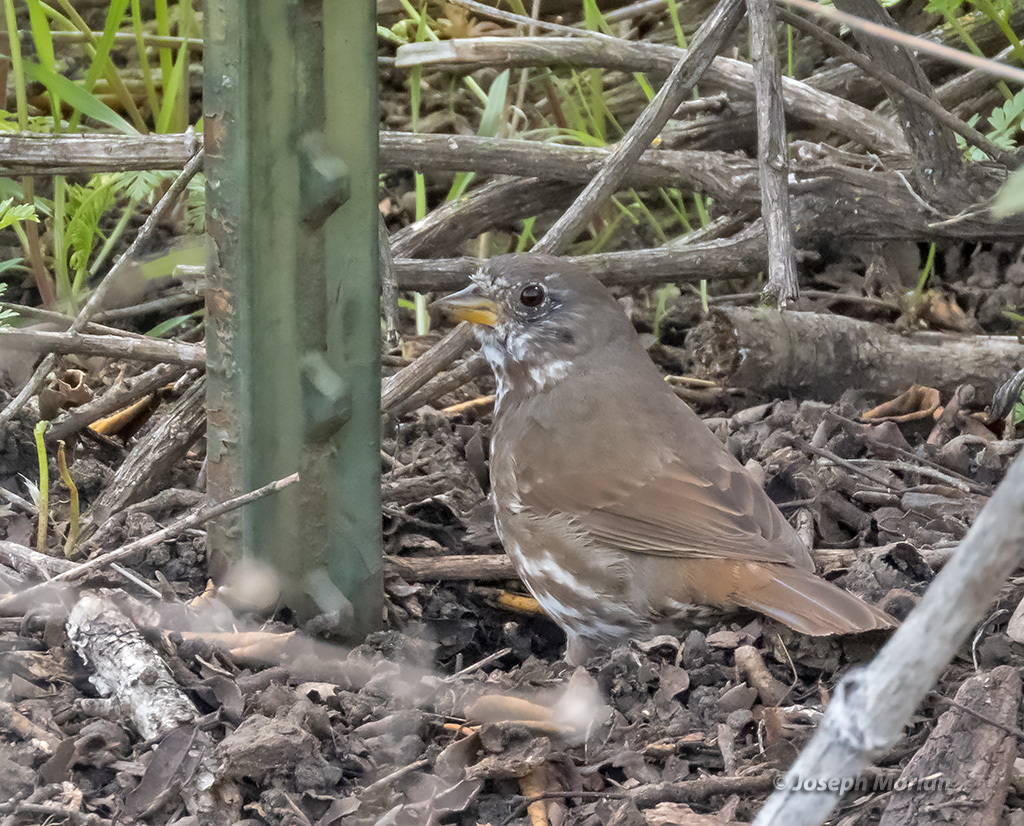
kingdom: Animalia
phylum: Chordata
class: Aves
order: Passeriformes
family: Passerellidae
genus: Passerella
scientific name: Passerella iliaca
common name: Fox sparrow
